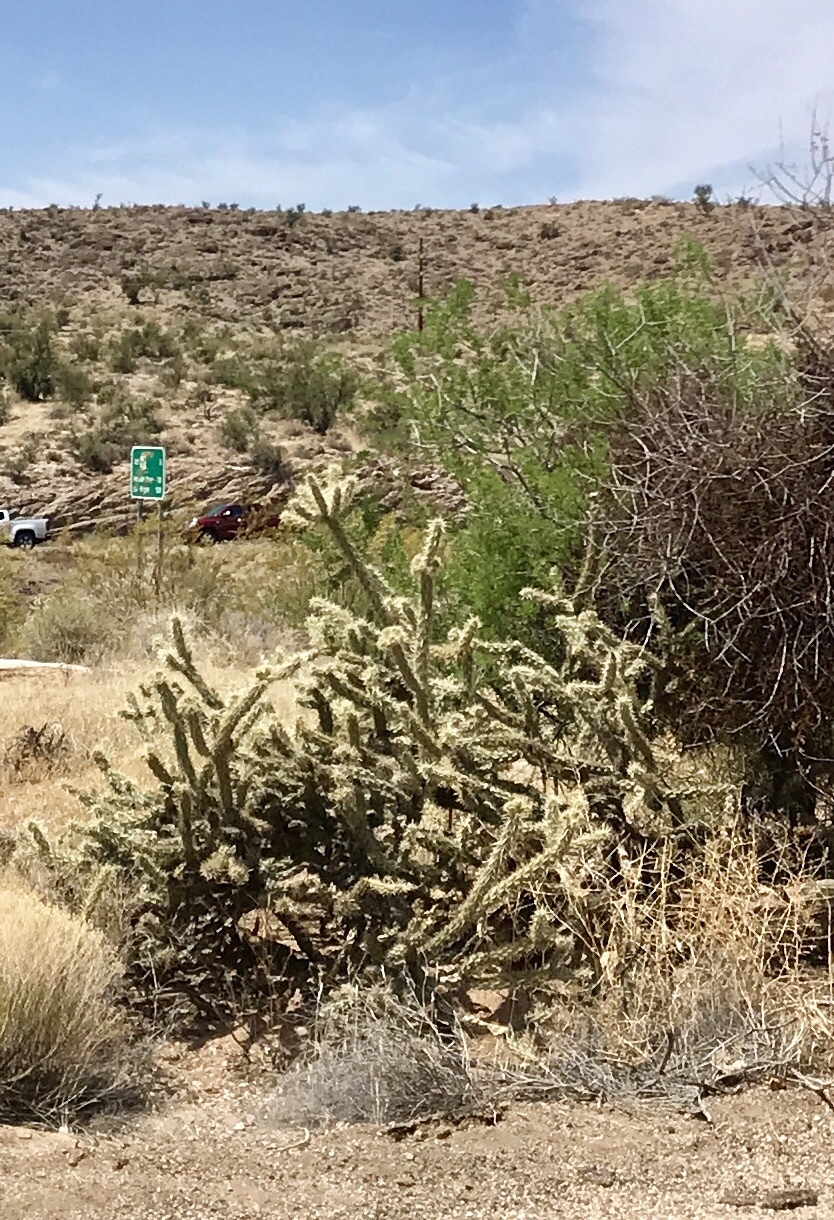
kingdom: Plantae
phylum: Tracheophyta
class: Magnoliopsida
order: Caryophyllales
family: Cactaceae
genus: Cylindropuntia
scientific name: Cylindropuntia acanthocarpa
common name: Buckhorn cholla
